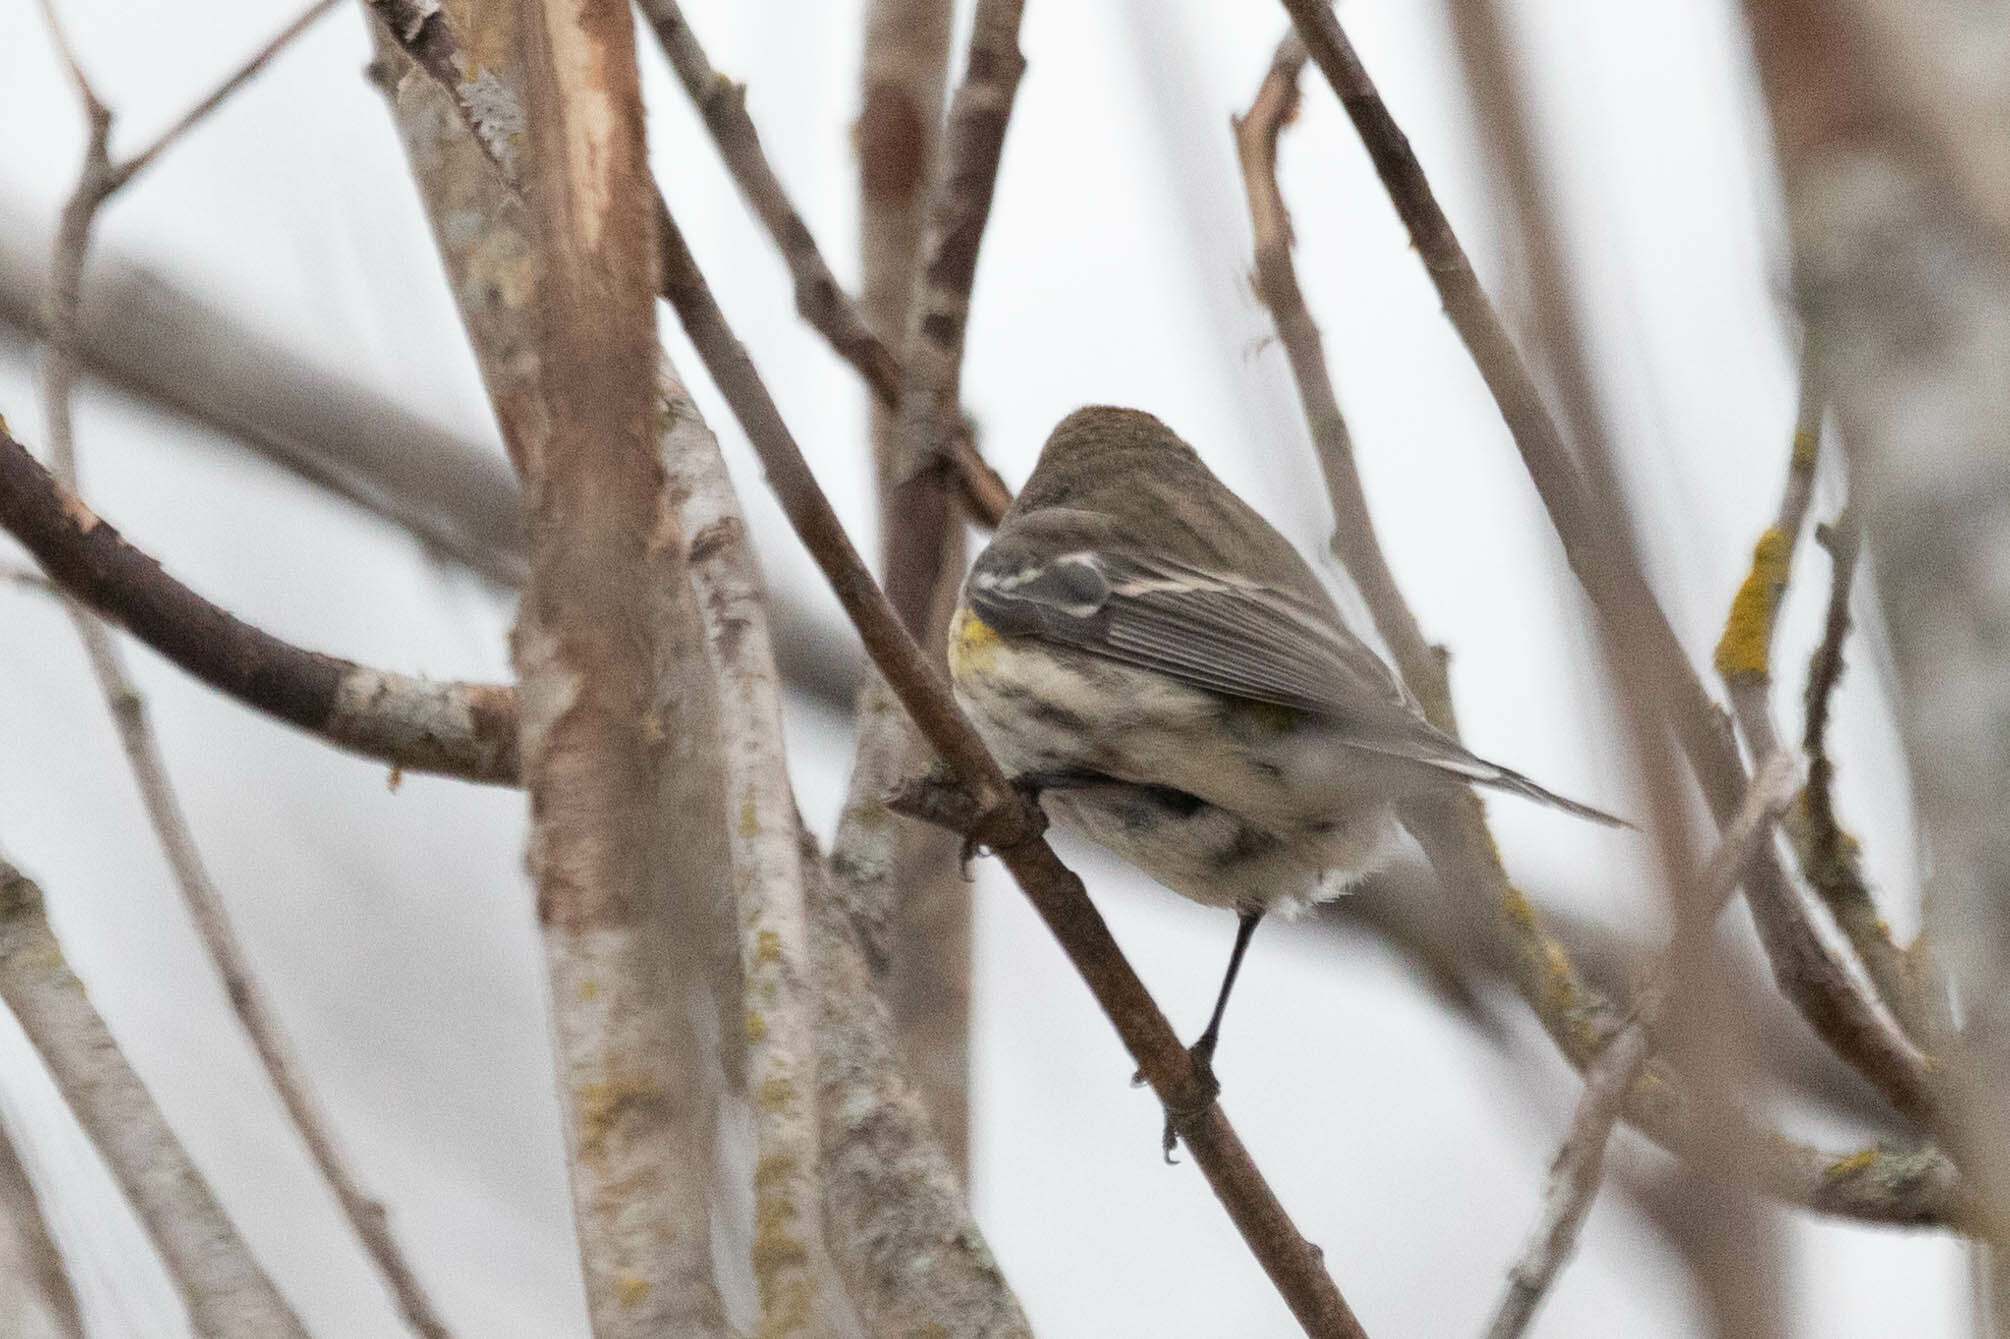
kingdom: Animalia
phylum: Chordata
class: Aves
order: Passeriformes
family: Parulidae
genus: Setophaga
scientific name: Setophaga coronata
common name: Myrtle warbler
